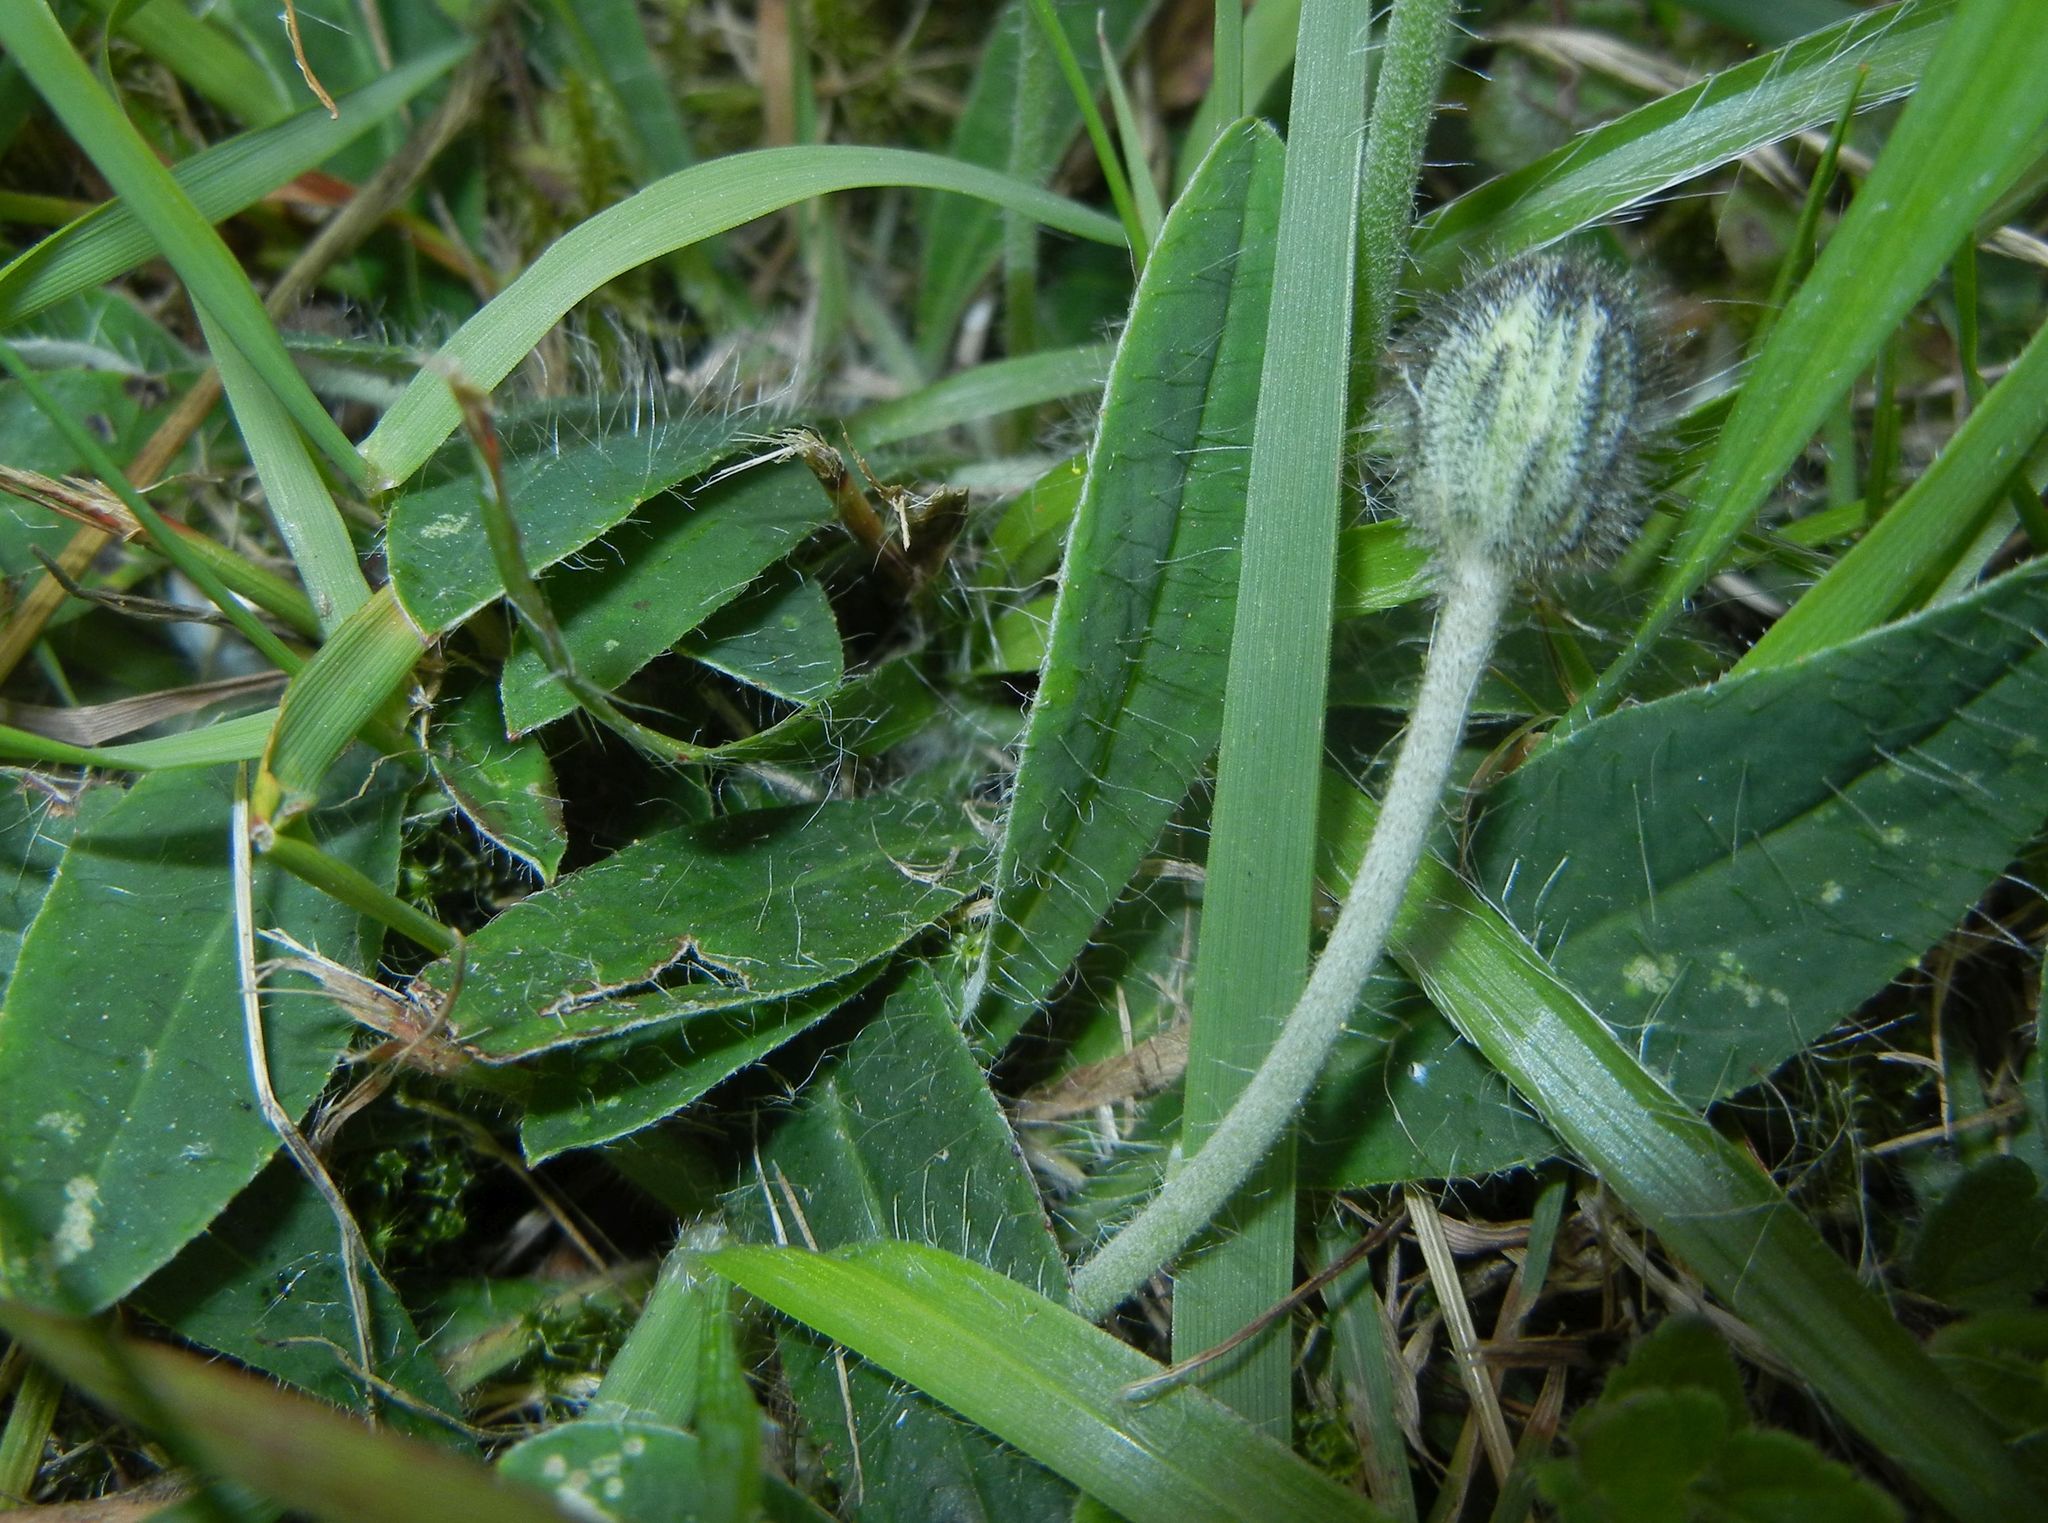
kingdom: Plantae
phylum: Tracheophyta
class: Magnoliopsida
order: Asterales
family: Asteraceae
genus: Pilosella
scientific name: Pilosella officinarum
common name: Mouse-ear hawkweed
